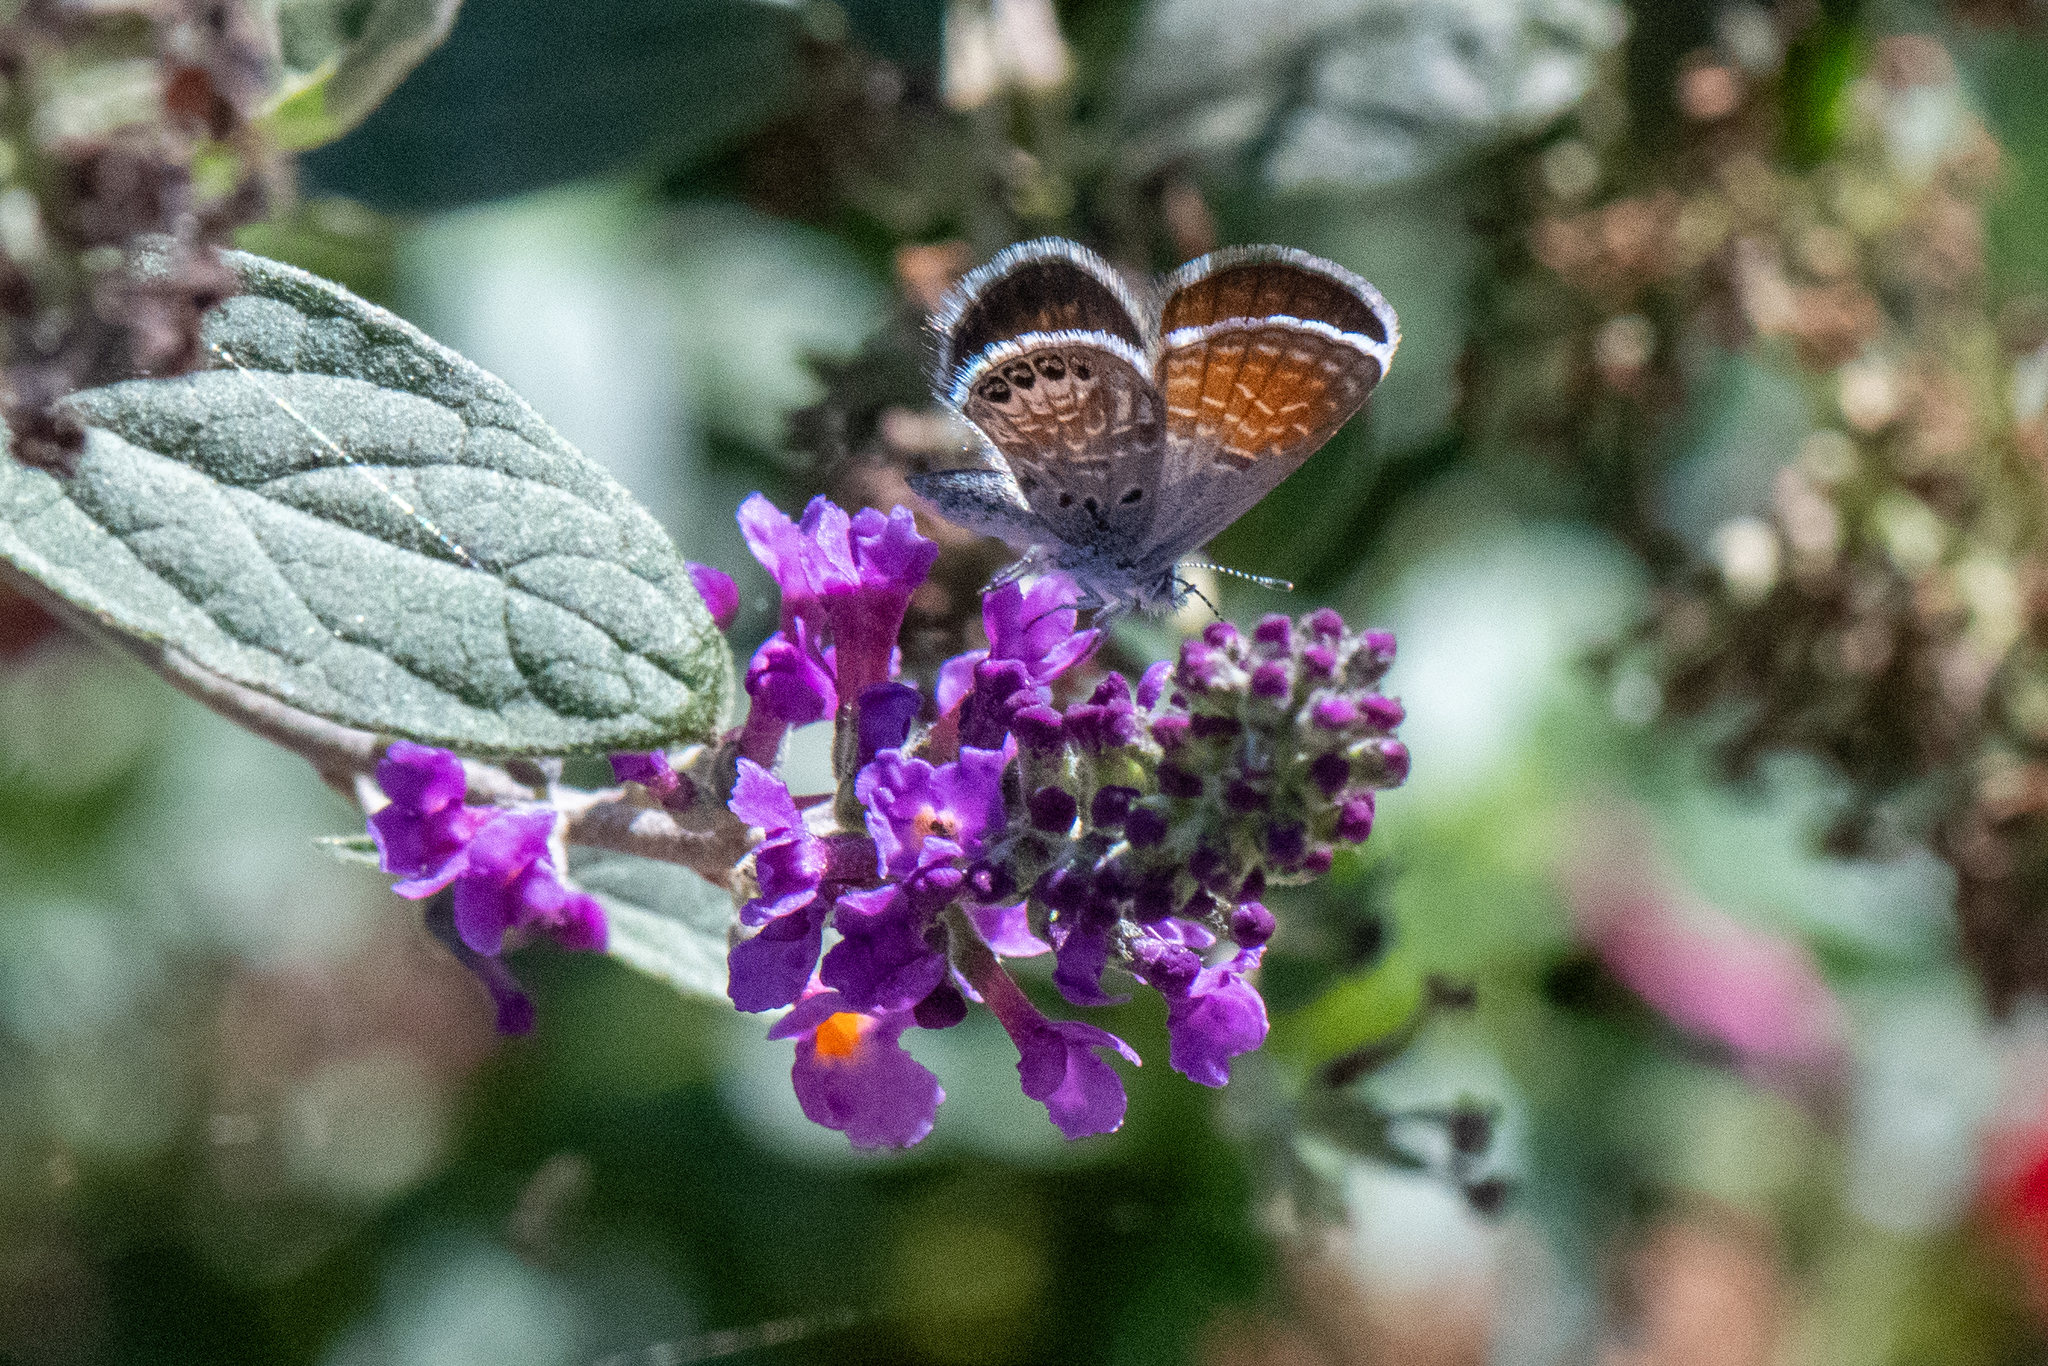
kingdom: Animalia
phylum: Arthropoda
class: Insecta
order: Lepidoptera
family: Lycaenidae
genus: Brephidium
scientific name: Brephidium exilis
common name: Pygmy blue
